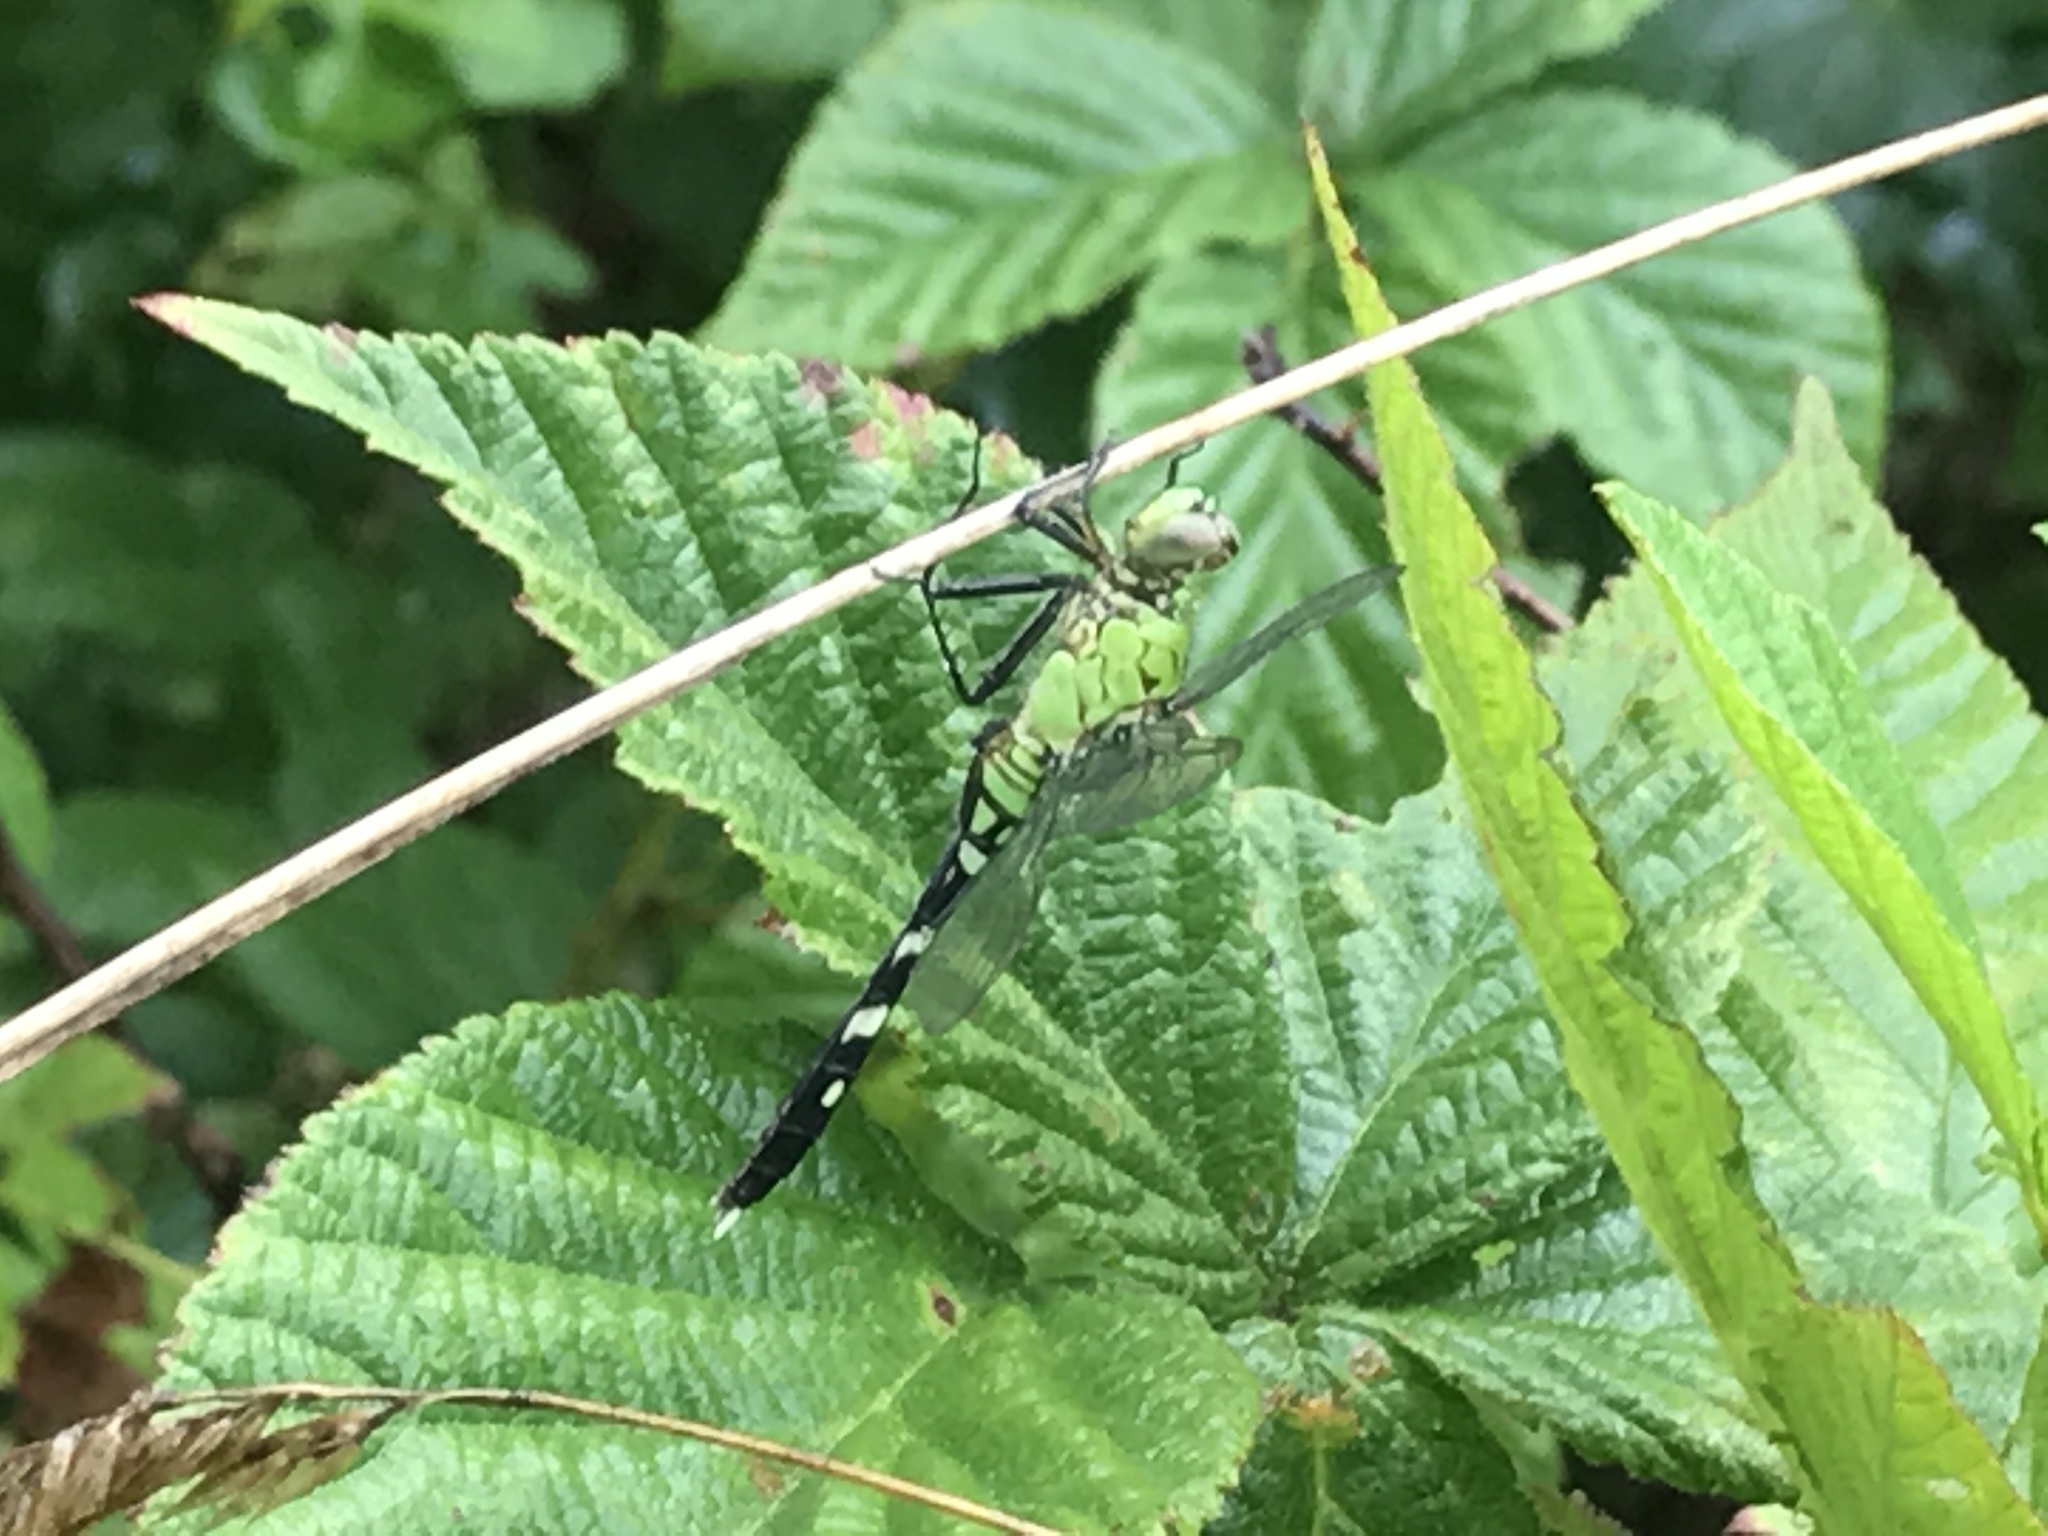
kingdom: Animalia
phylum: Arthropoda
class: Insecta
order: Odonata
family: Libellulidae
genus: Erythemis
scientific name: Erythemis simplicicollis
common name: Eastern pondhawk
